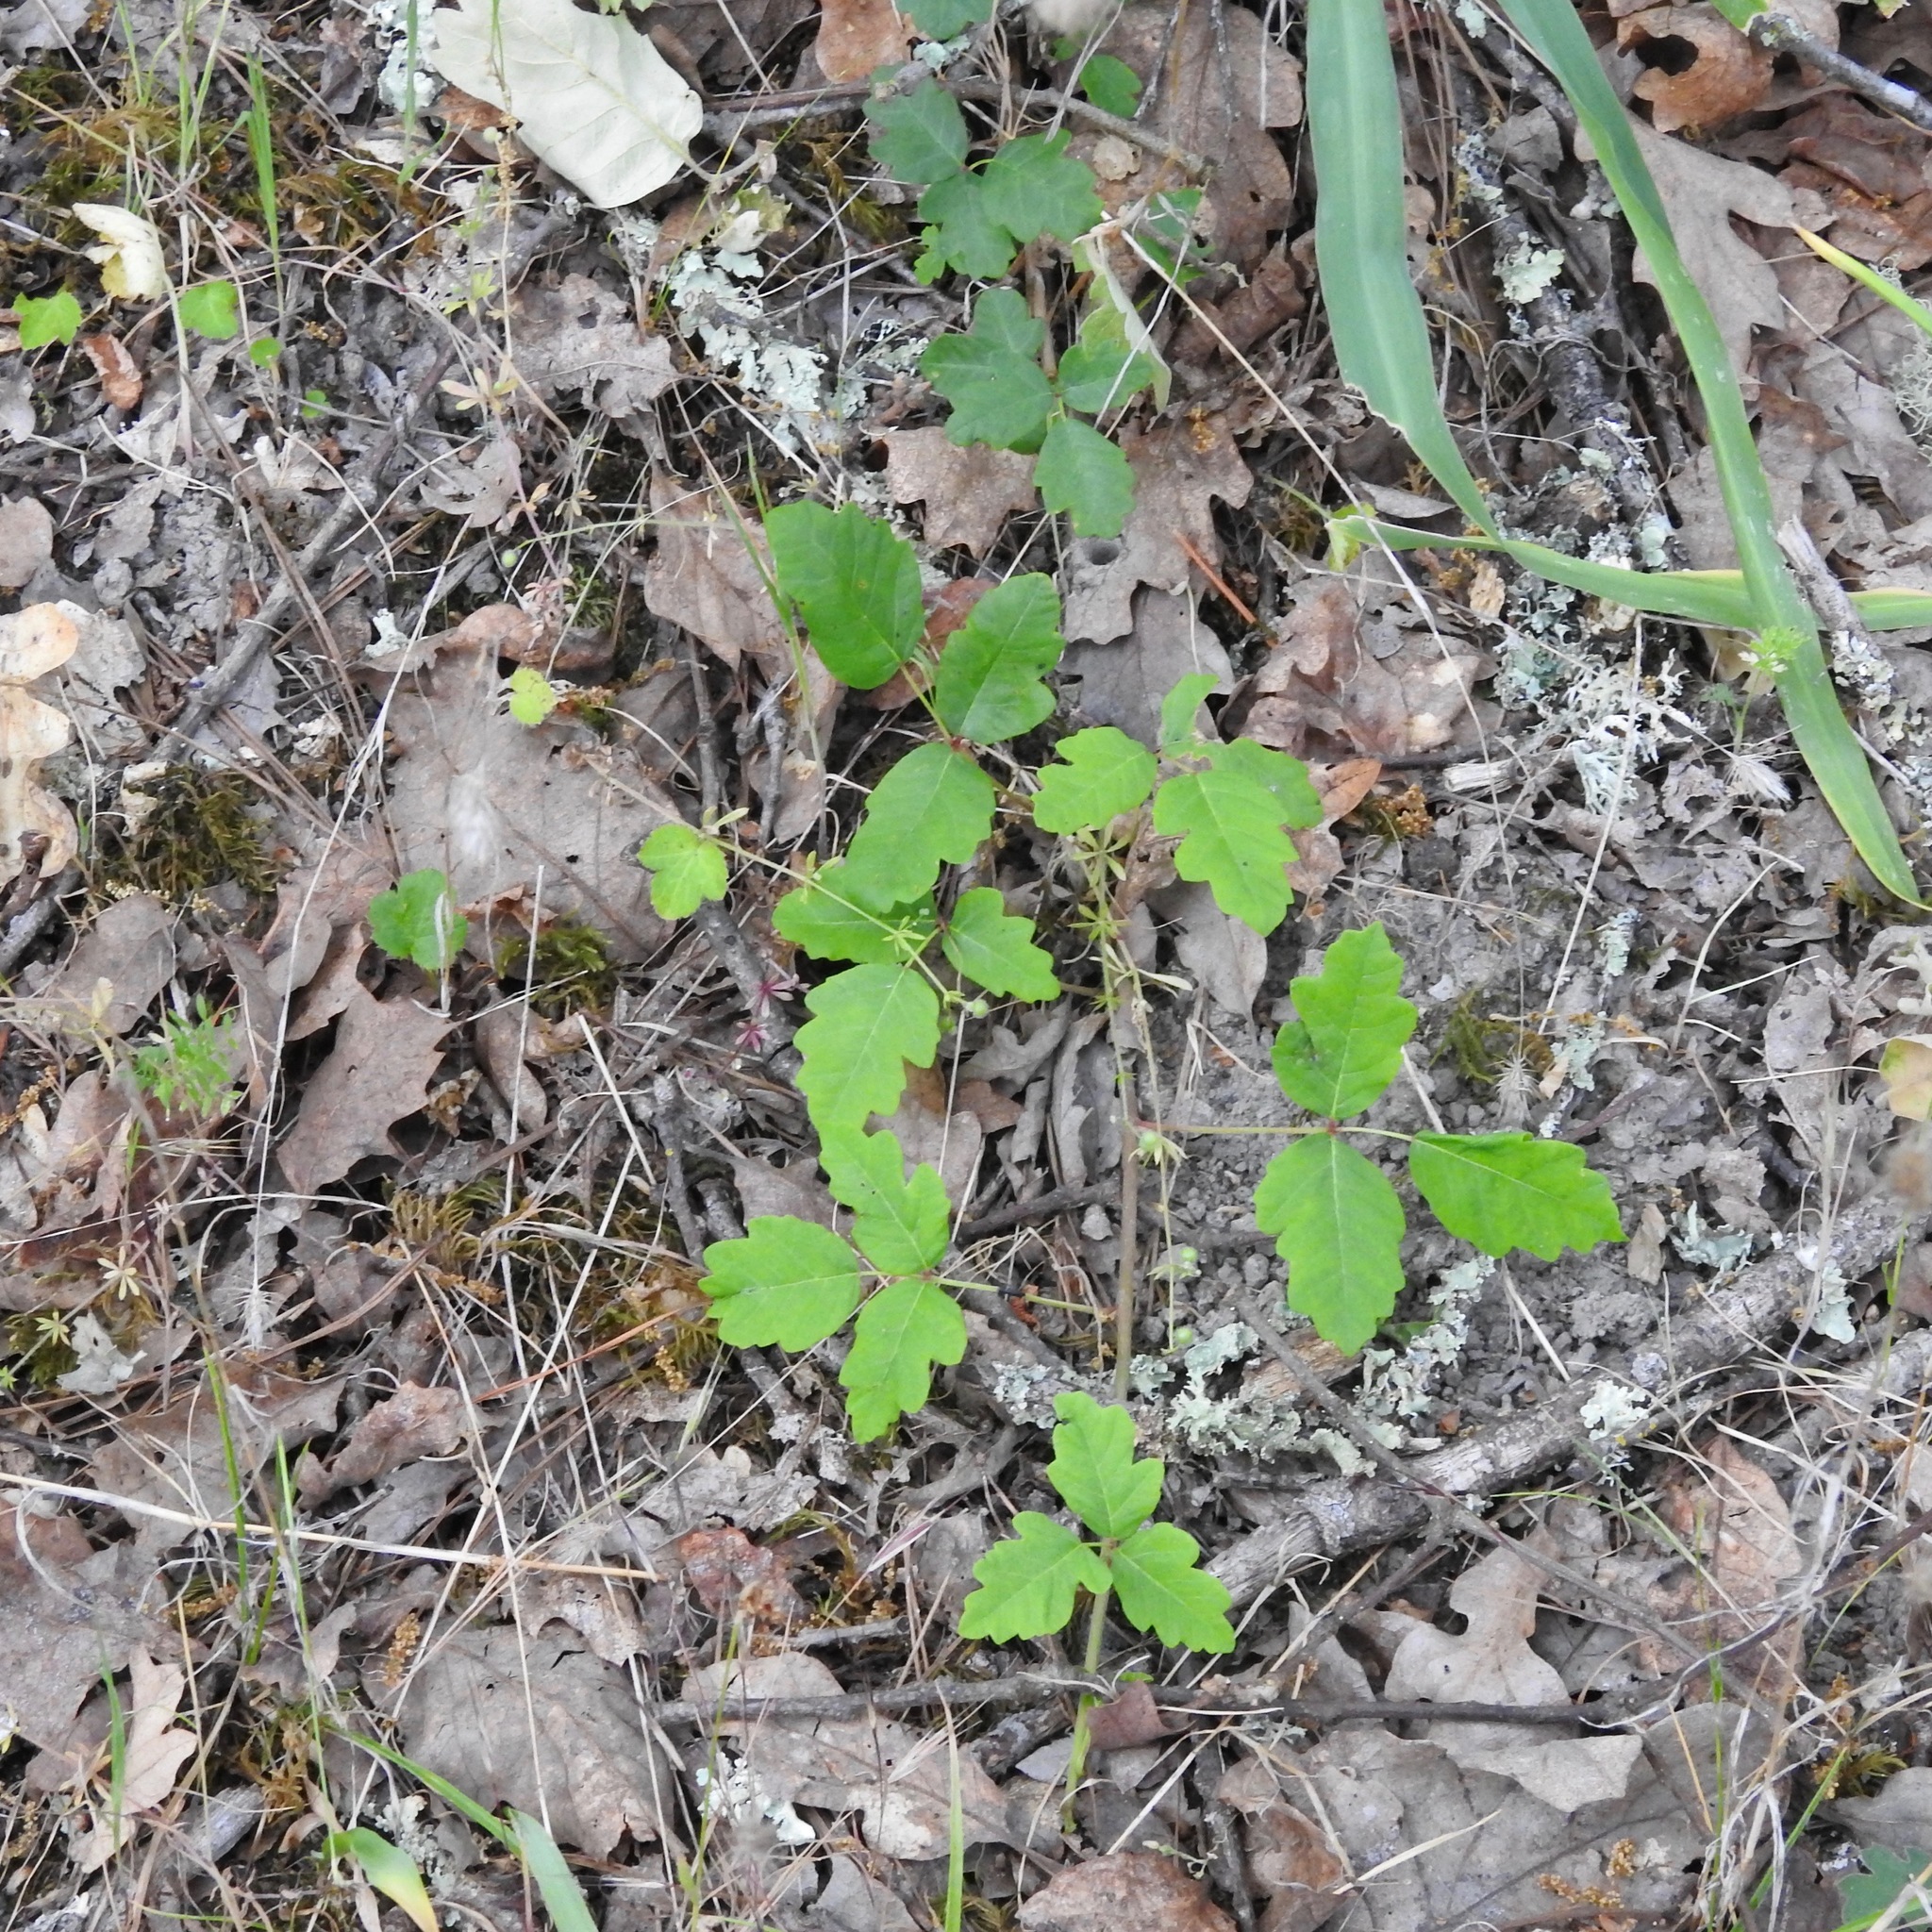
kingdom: Plantae
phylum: Tracheophyta
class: Magnoliopsida
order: Sapindales
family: Anacardiaceae
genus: Toxicodendron
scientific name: Toxicodendron diversilobum
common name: Pacific poison-oak
